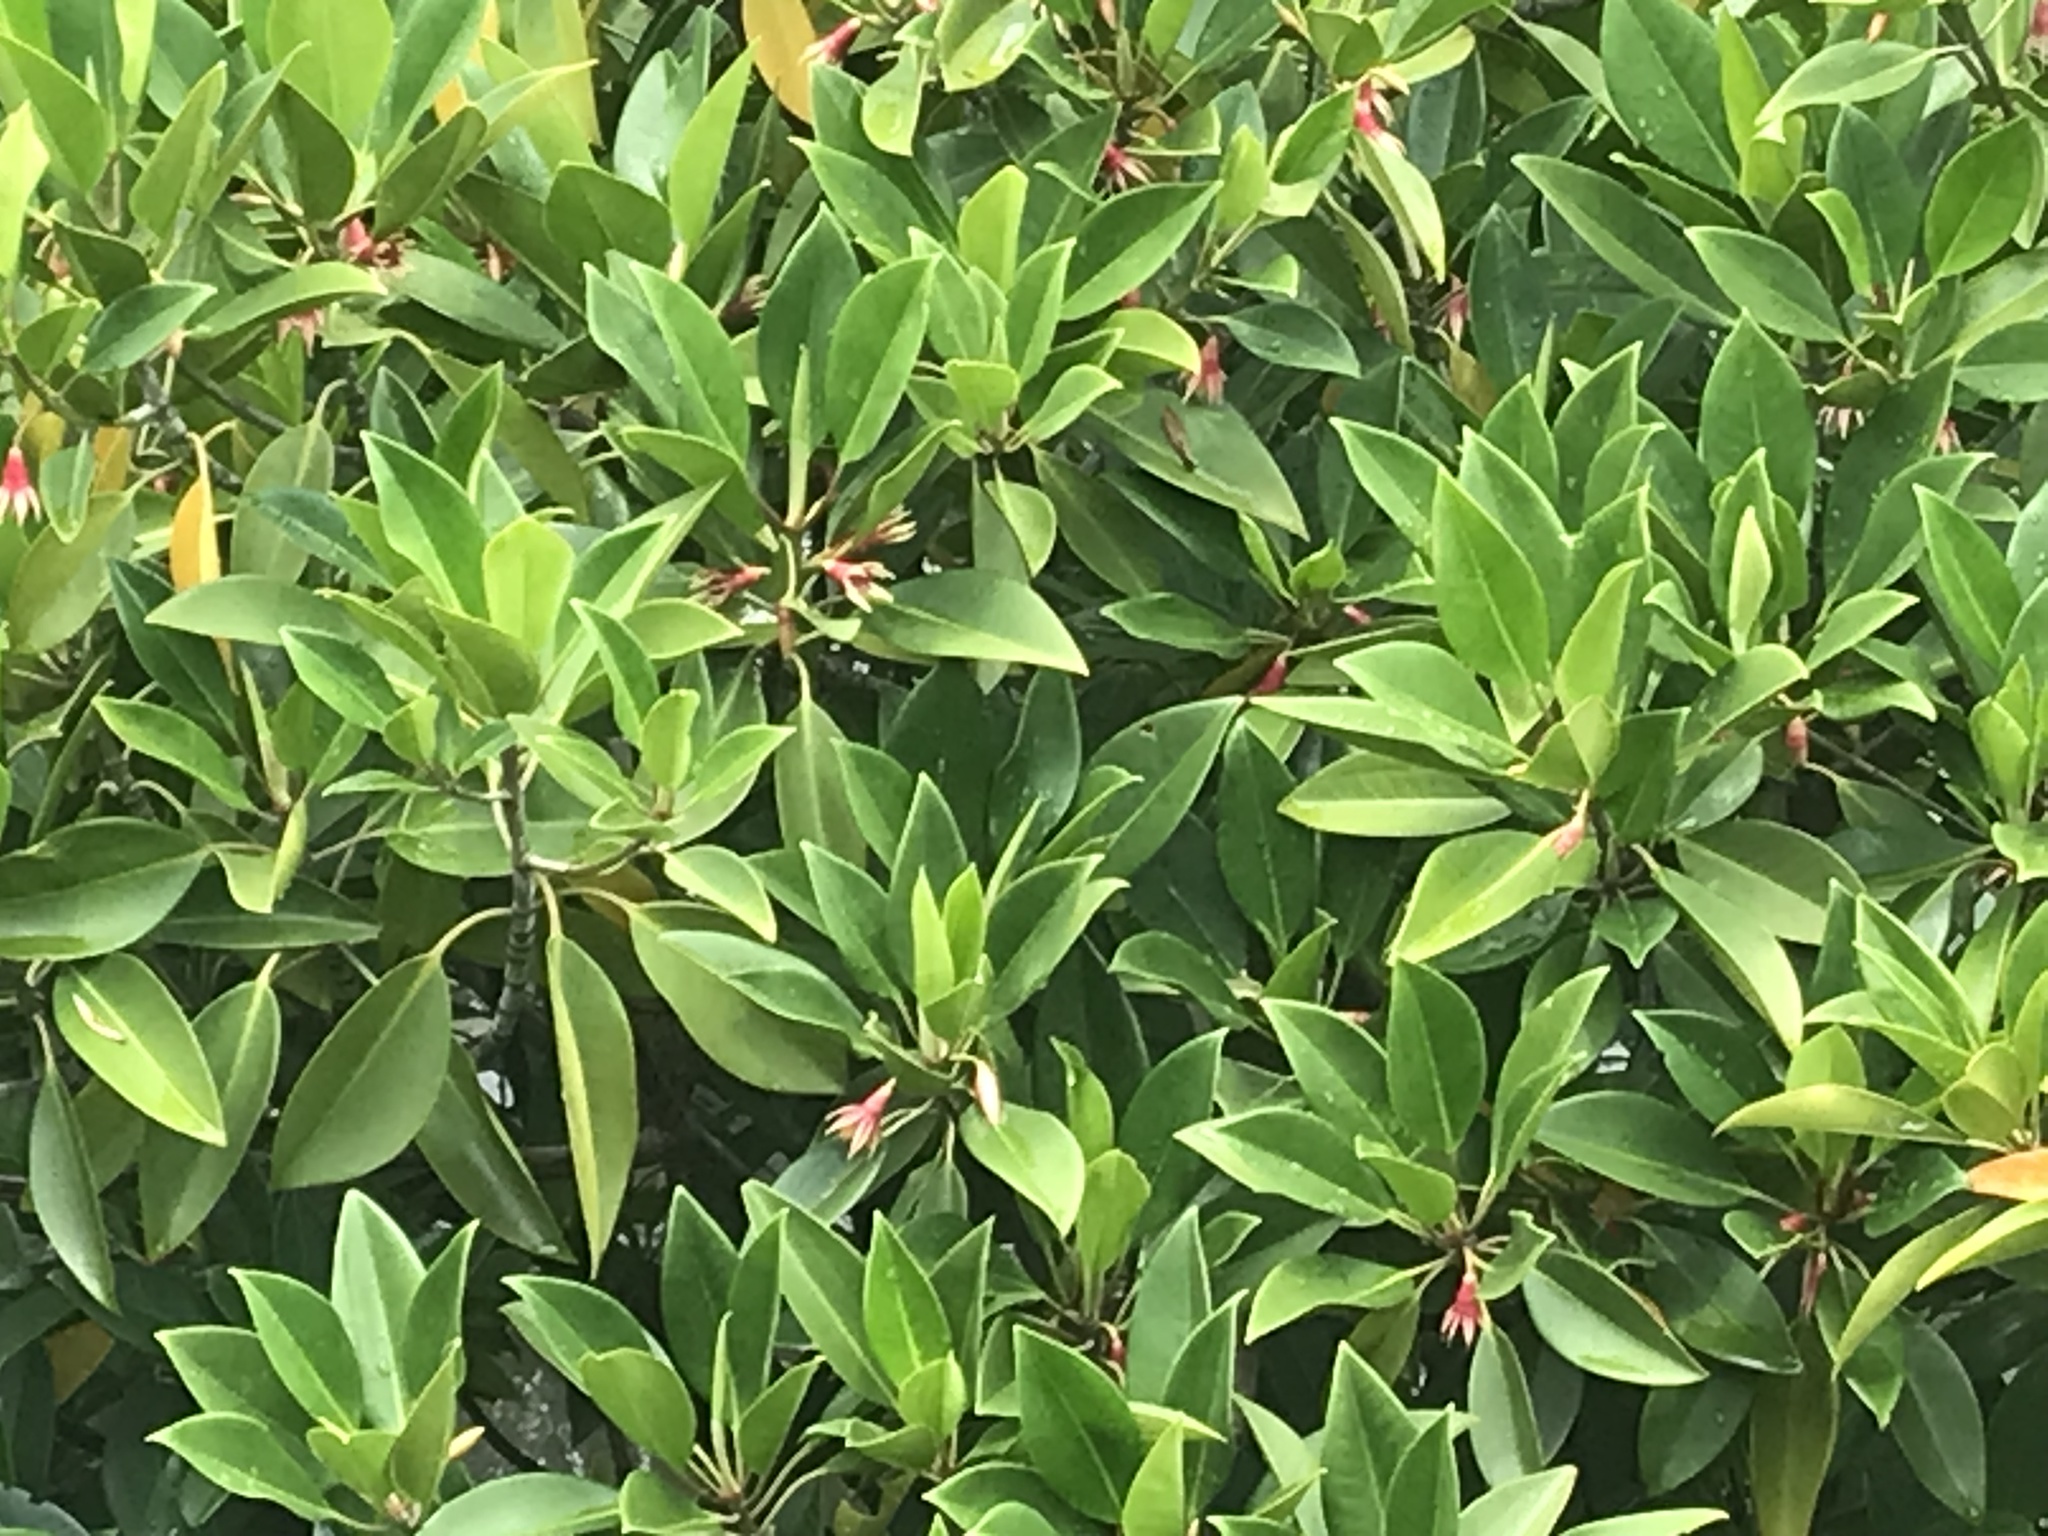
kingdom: Plantae
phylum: Tracheophyta
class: Magnoliopsida
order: Malpighiales
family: Rhizophoraceae
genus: Bruguiera
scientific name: Bruguiera gymnorhiza
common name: Oriental mangrove
